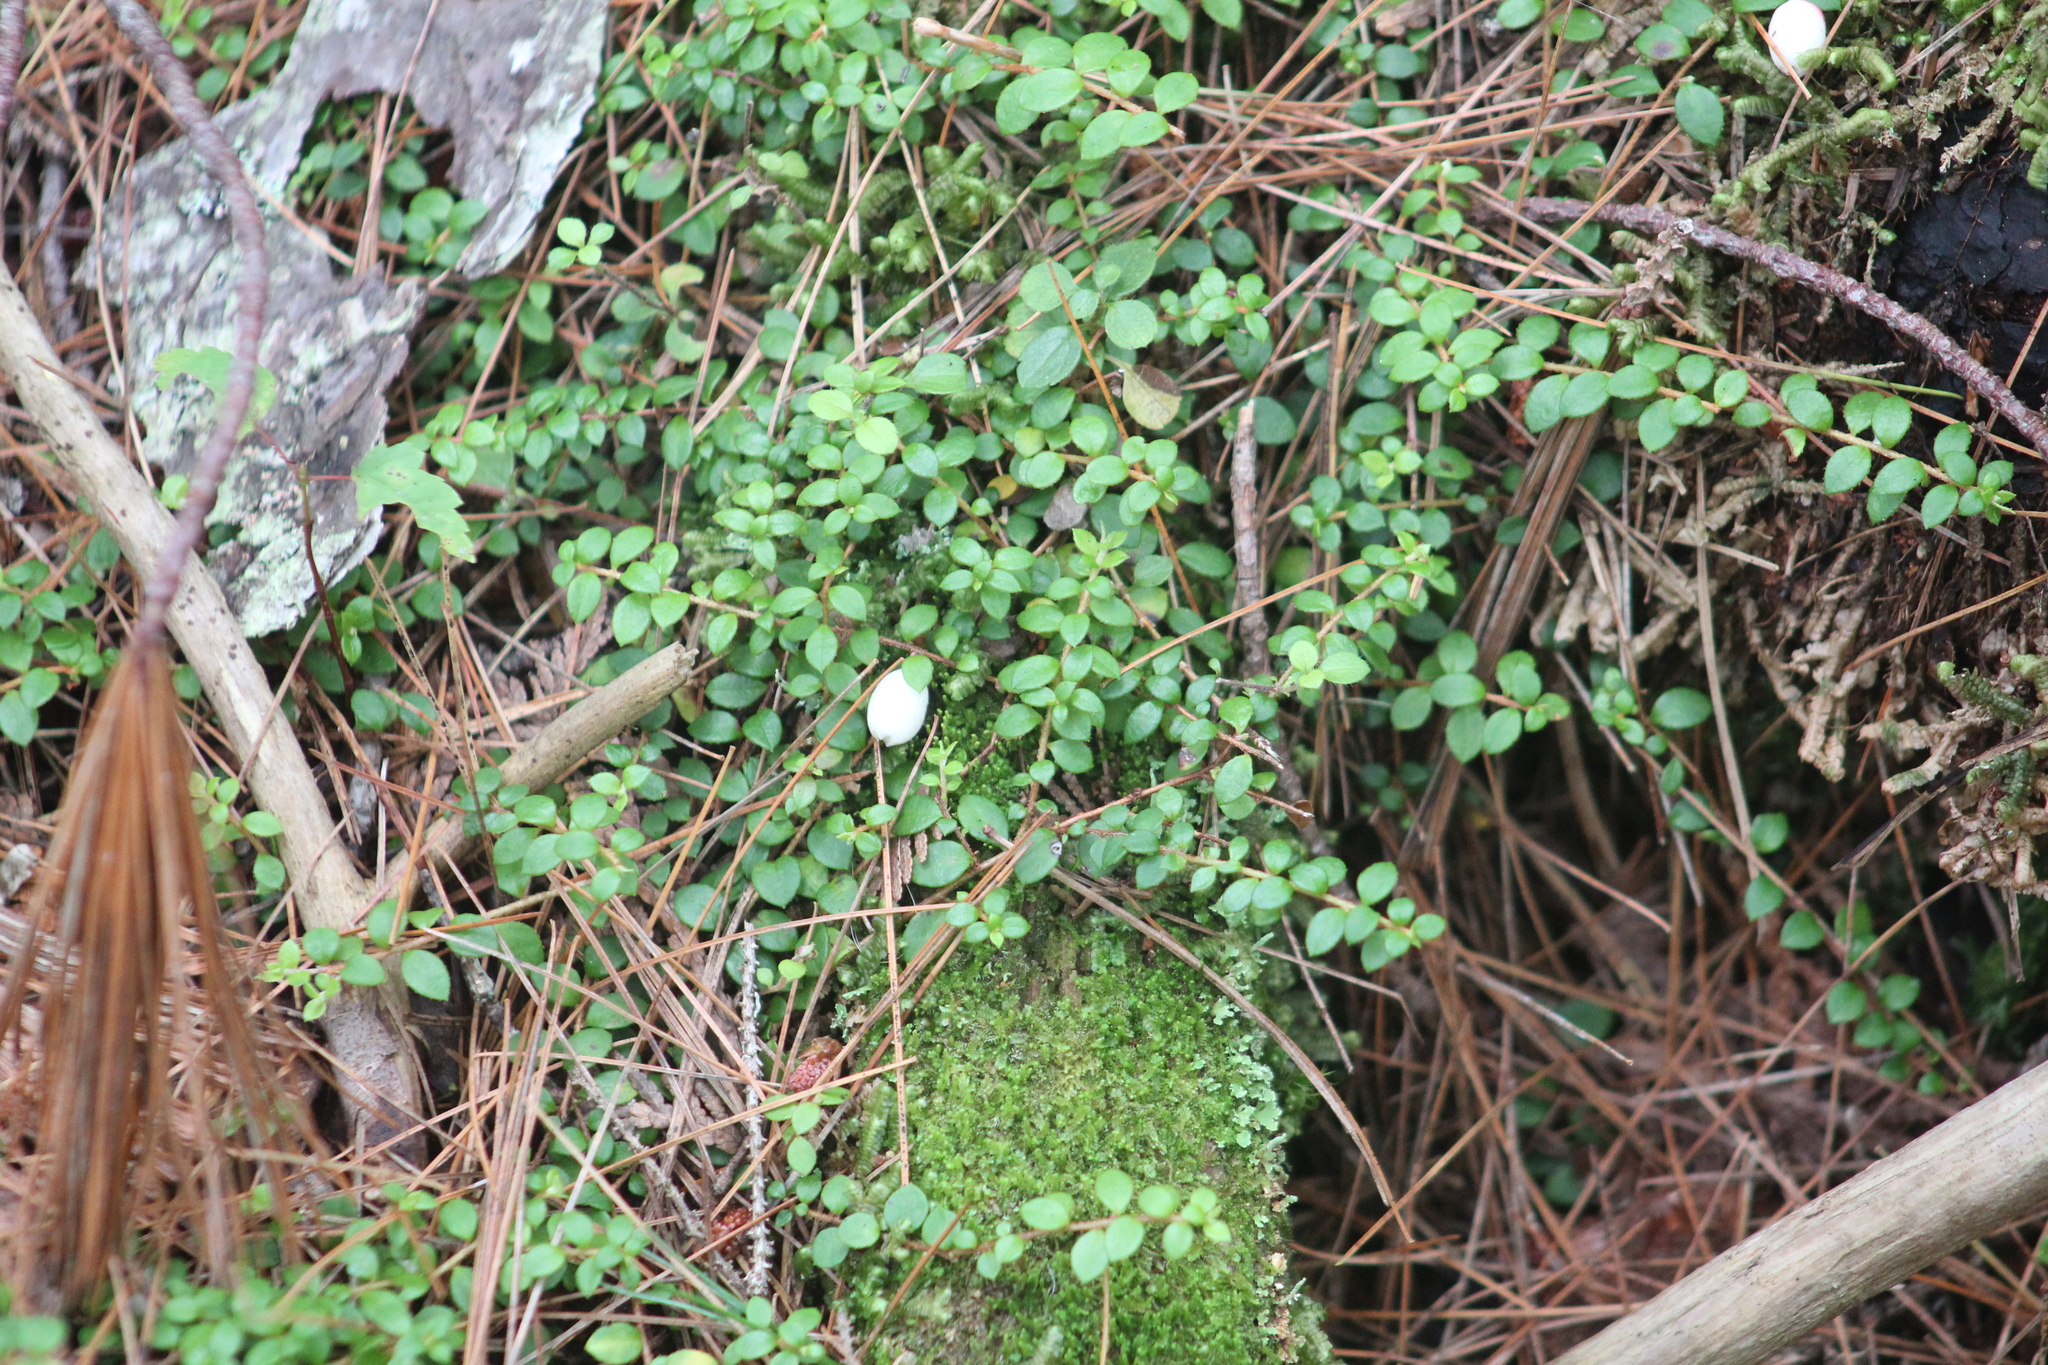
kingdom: Plantae
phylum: Tracheophyta
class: Magnoliopsida
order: Ericales
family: Ericaceae
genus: Gaultheria
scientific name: Gaultheria hispidula
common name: Cancer wintergreen
